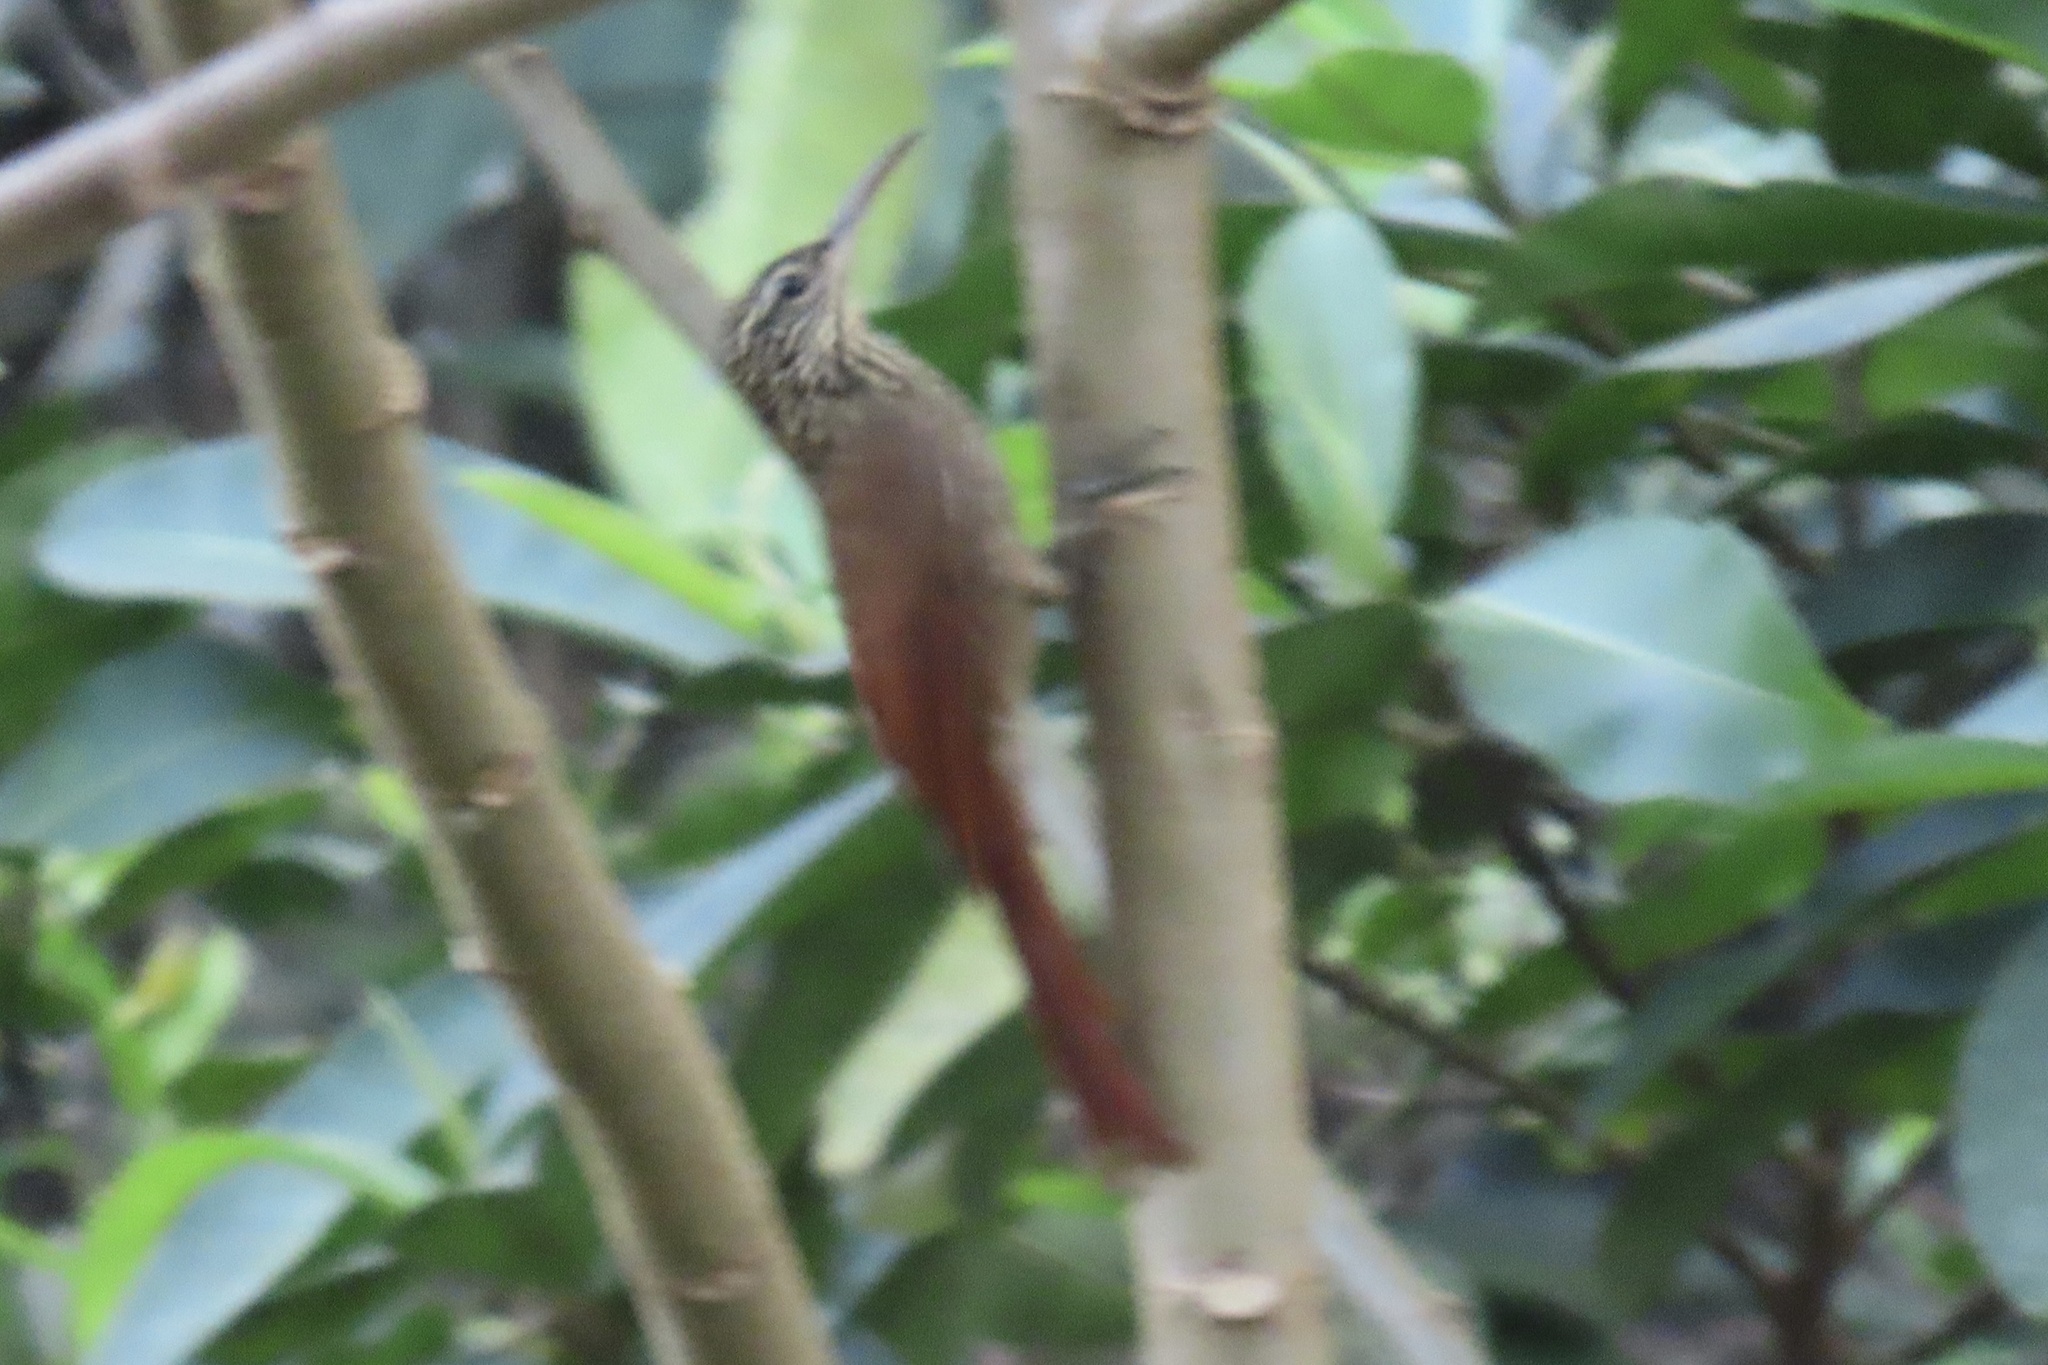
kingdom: Animalia
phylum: Chordata
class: Aves
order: Passeriformes
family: Furnariidae
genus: Lepidocolaptes
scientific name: Lepidocolaptes souleyetii
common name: Streak-headed woodcreeper
